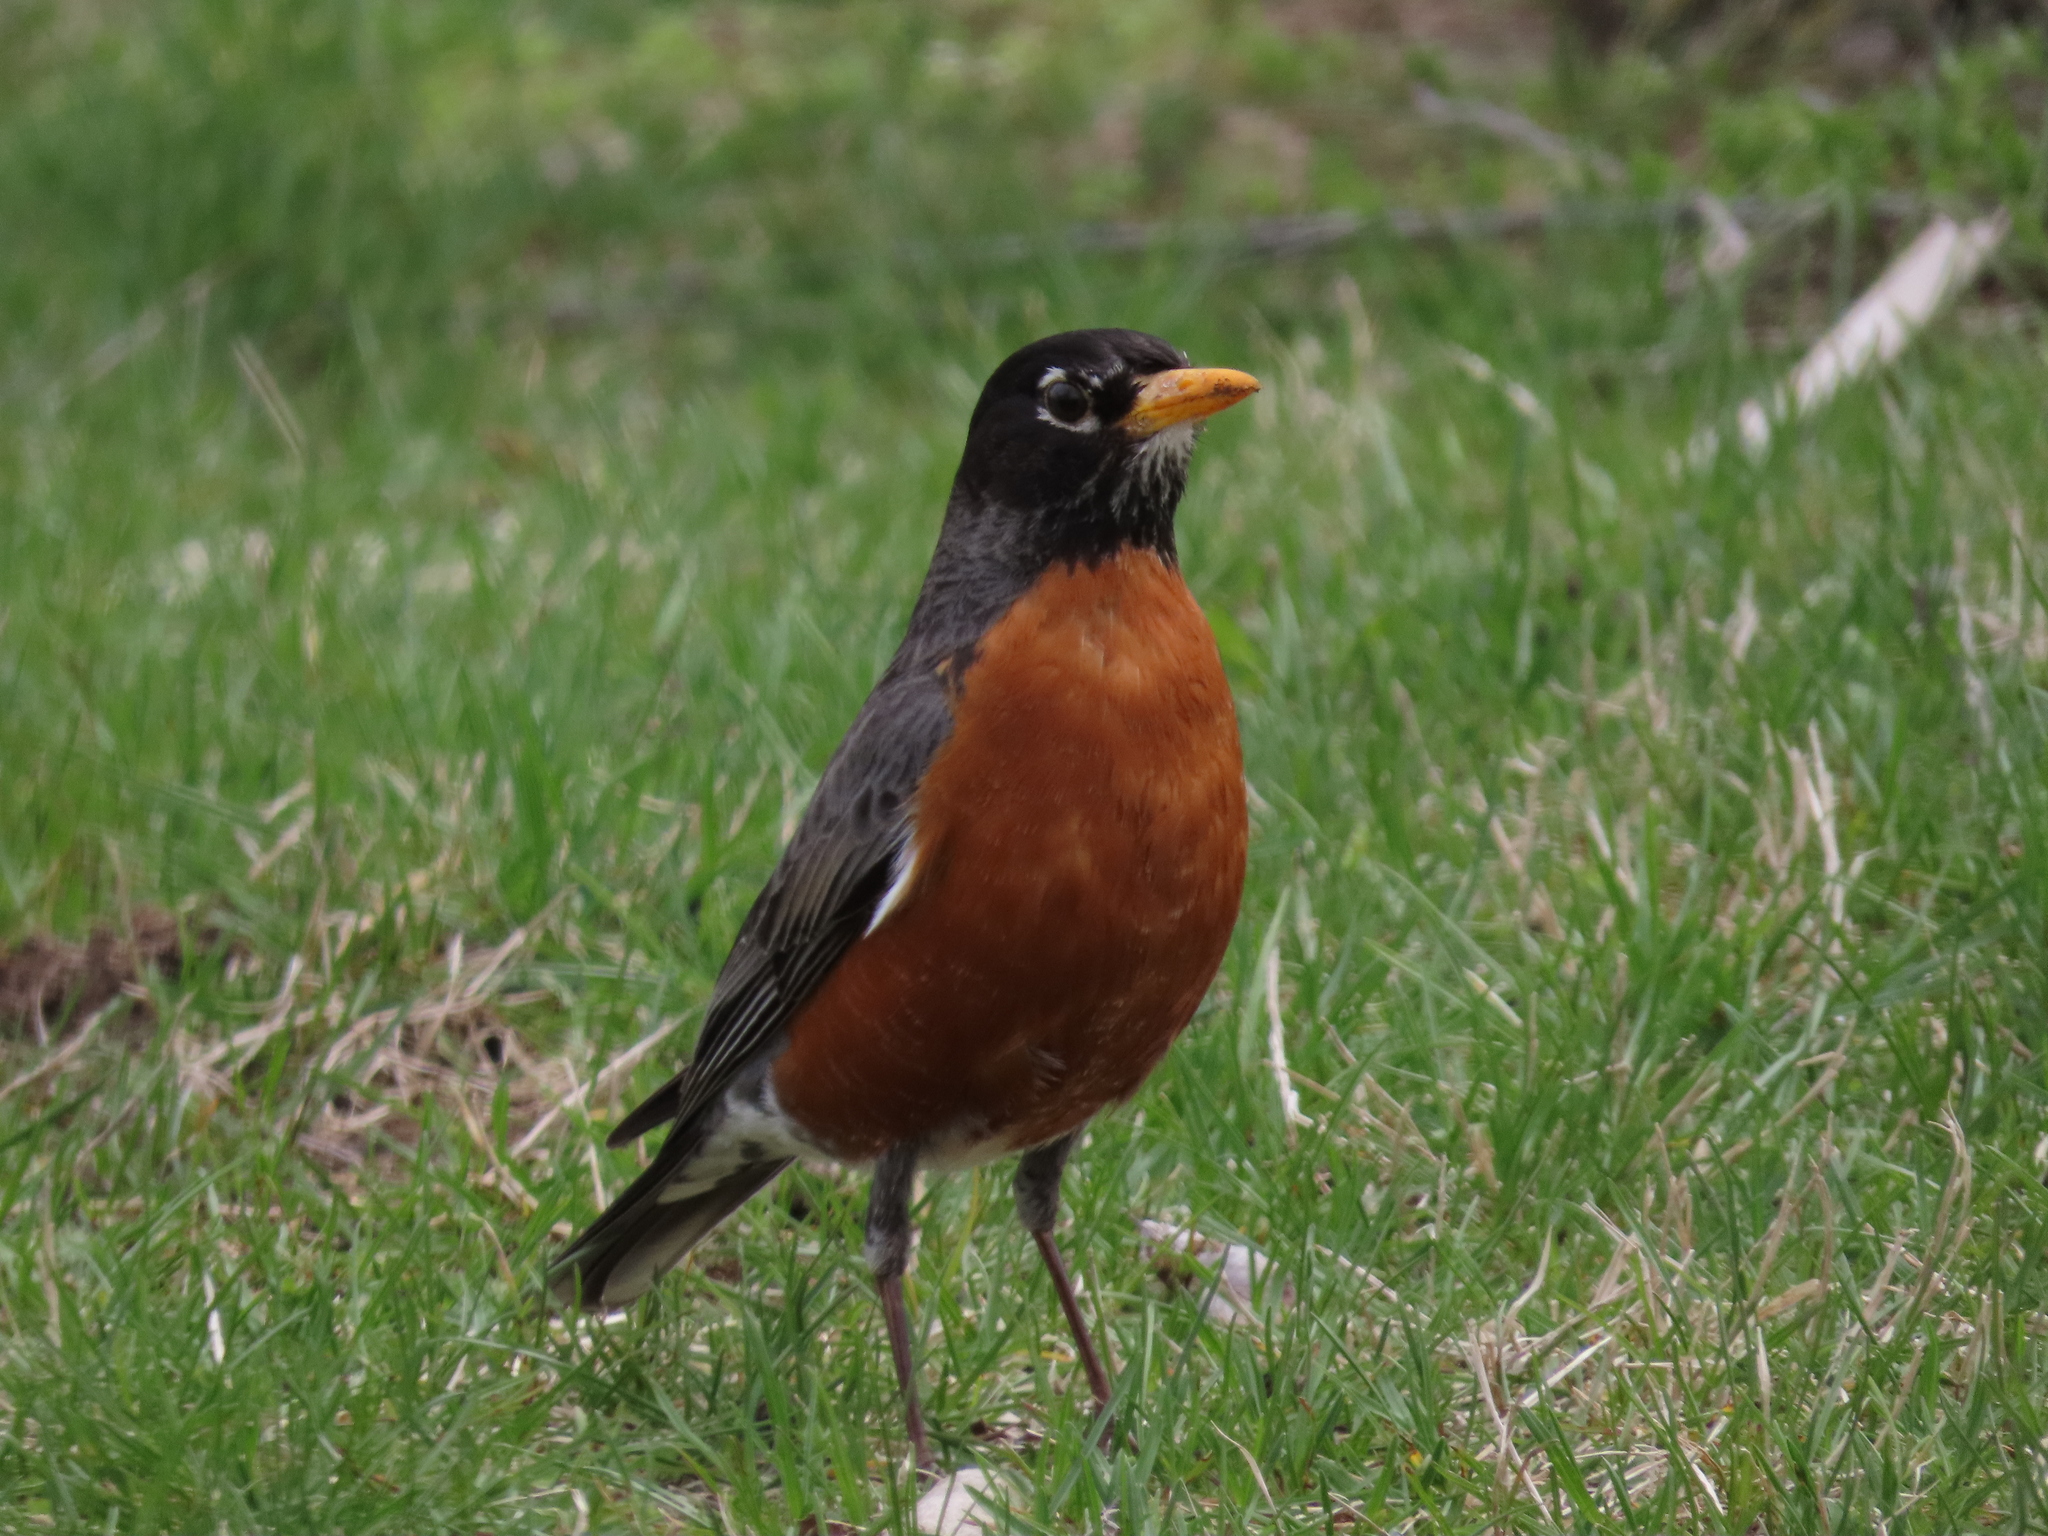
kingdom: Animalia
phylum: Chordata
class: Aves
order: Passeriformes
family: Turdidae
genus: Turdus
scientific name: Turdus migratorius
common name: American robin
